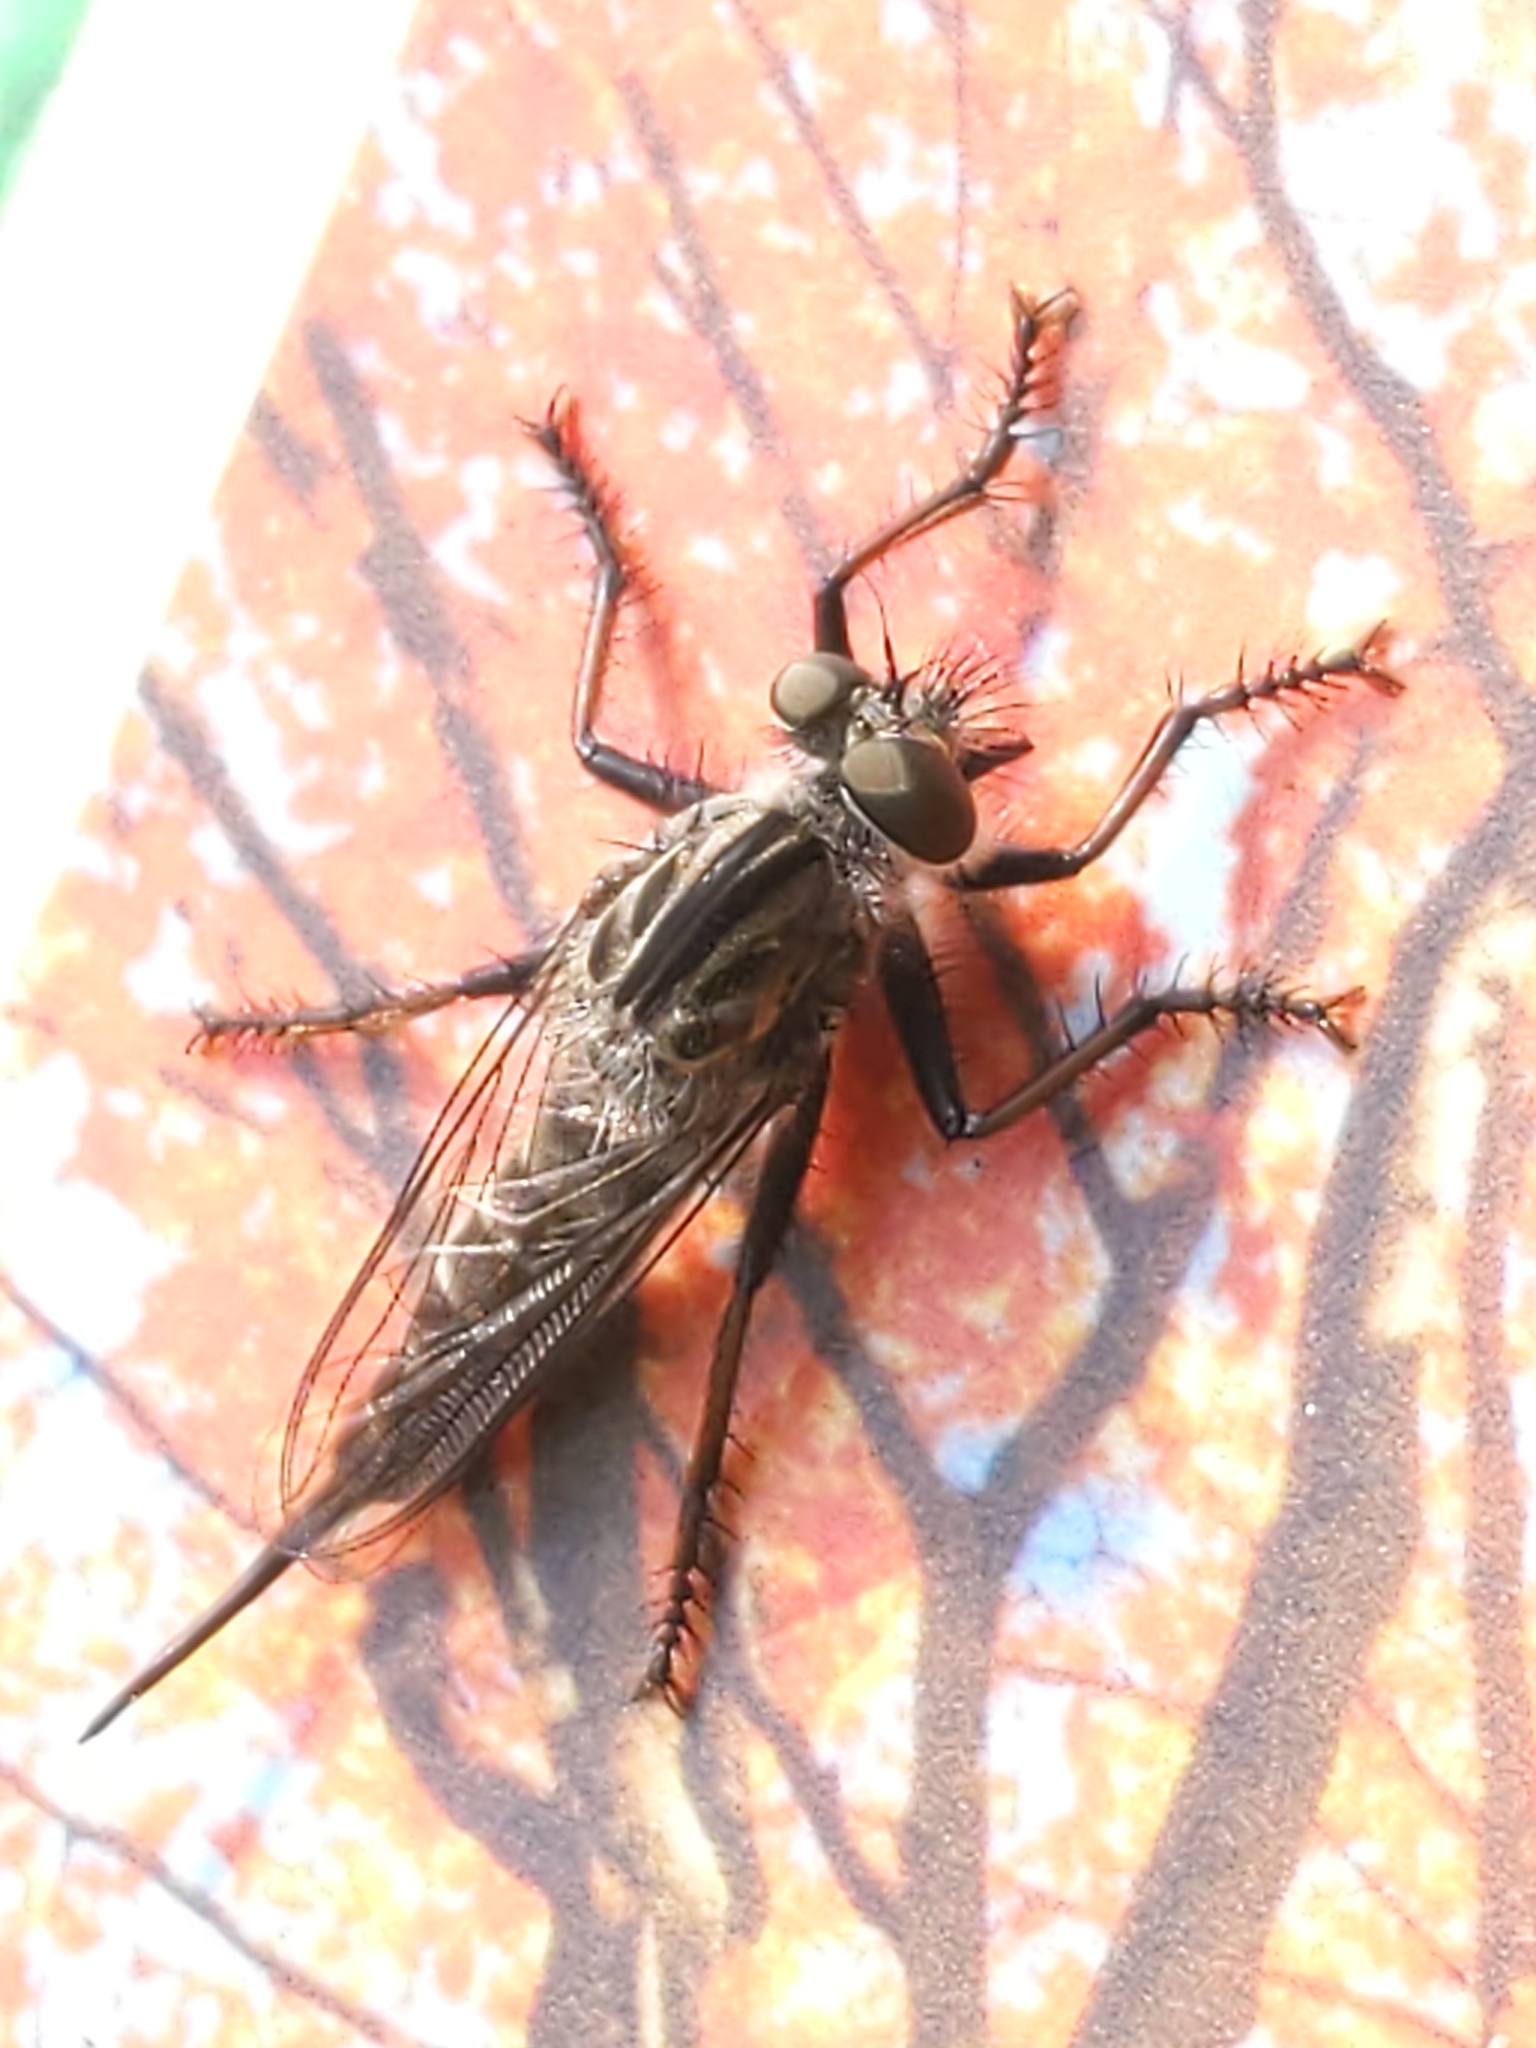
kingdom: Animalia
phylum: Arthropoda
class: Insecta
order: Diptera
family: Asilidae
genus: Efferia
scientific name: Efferia
